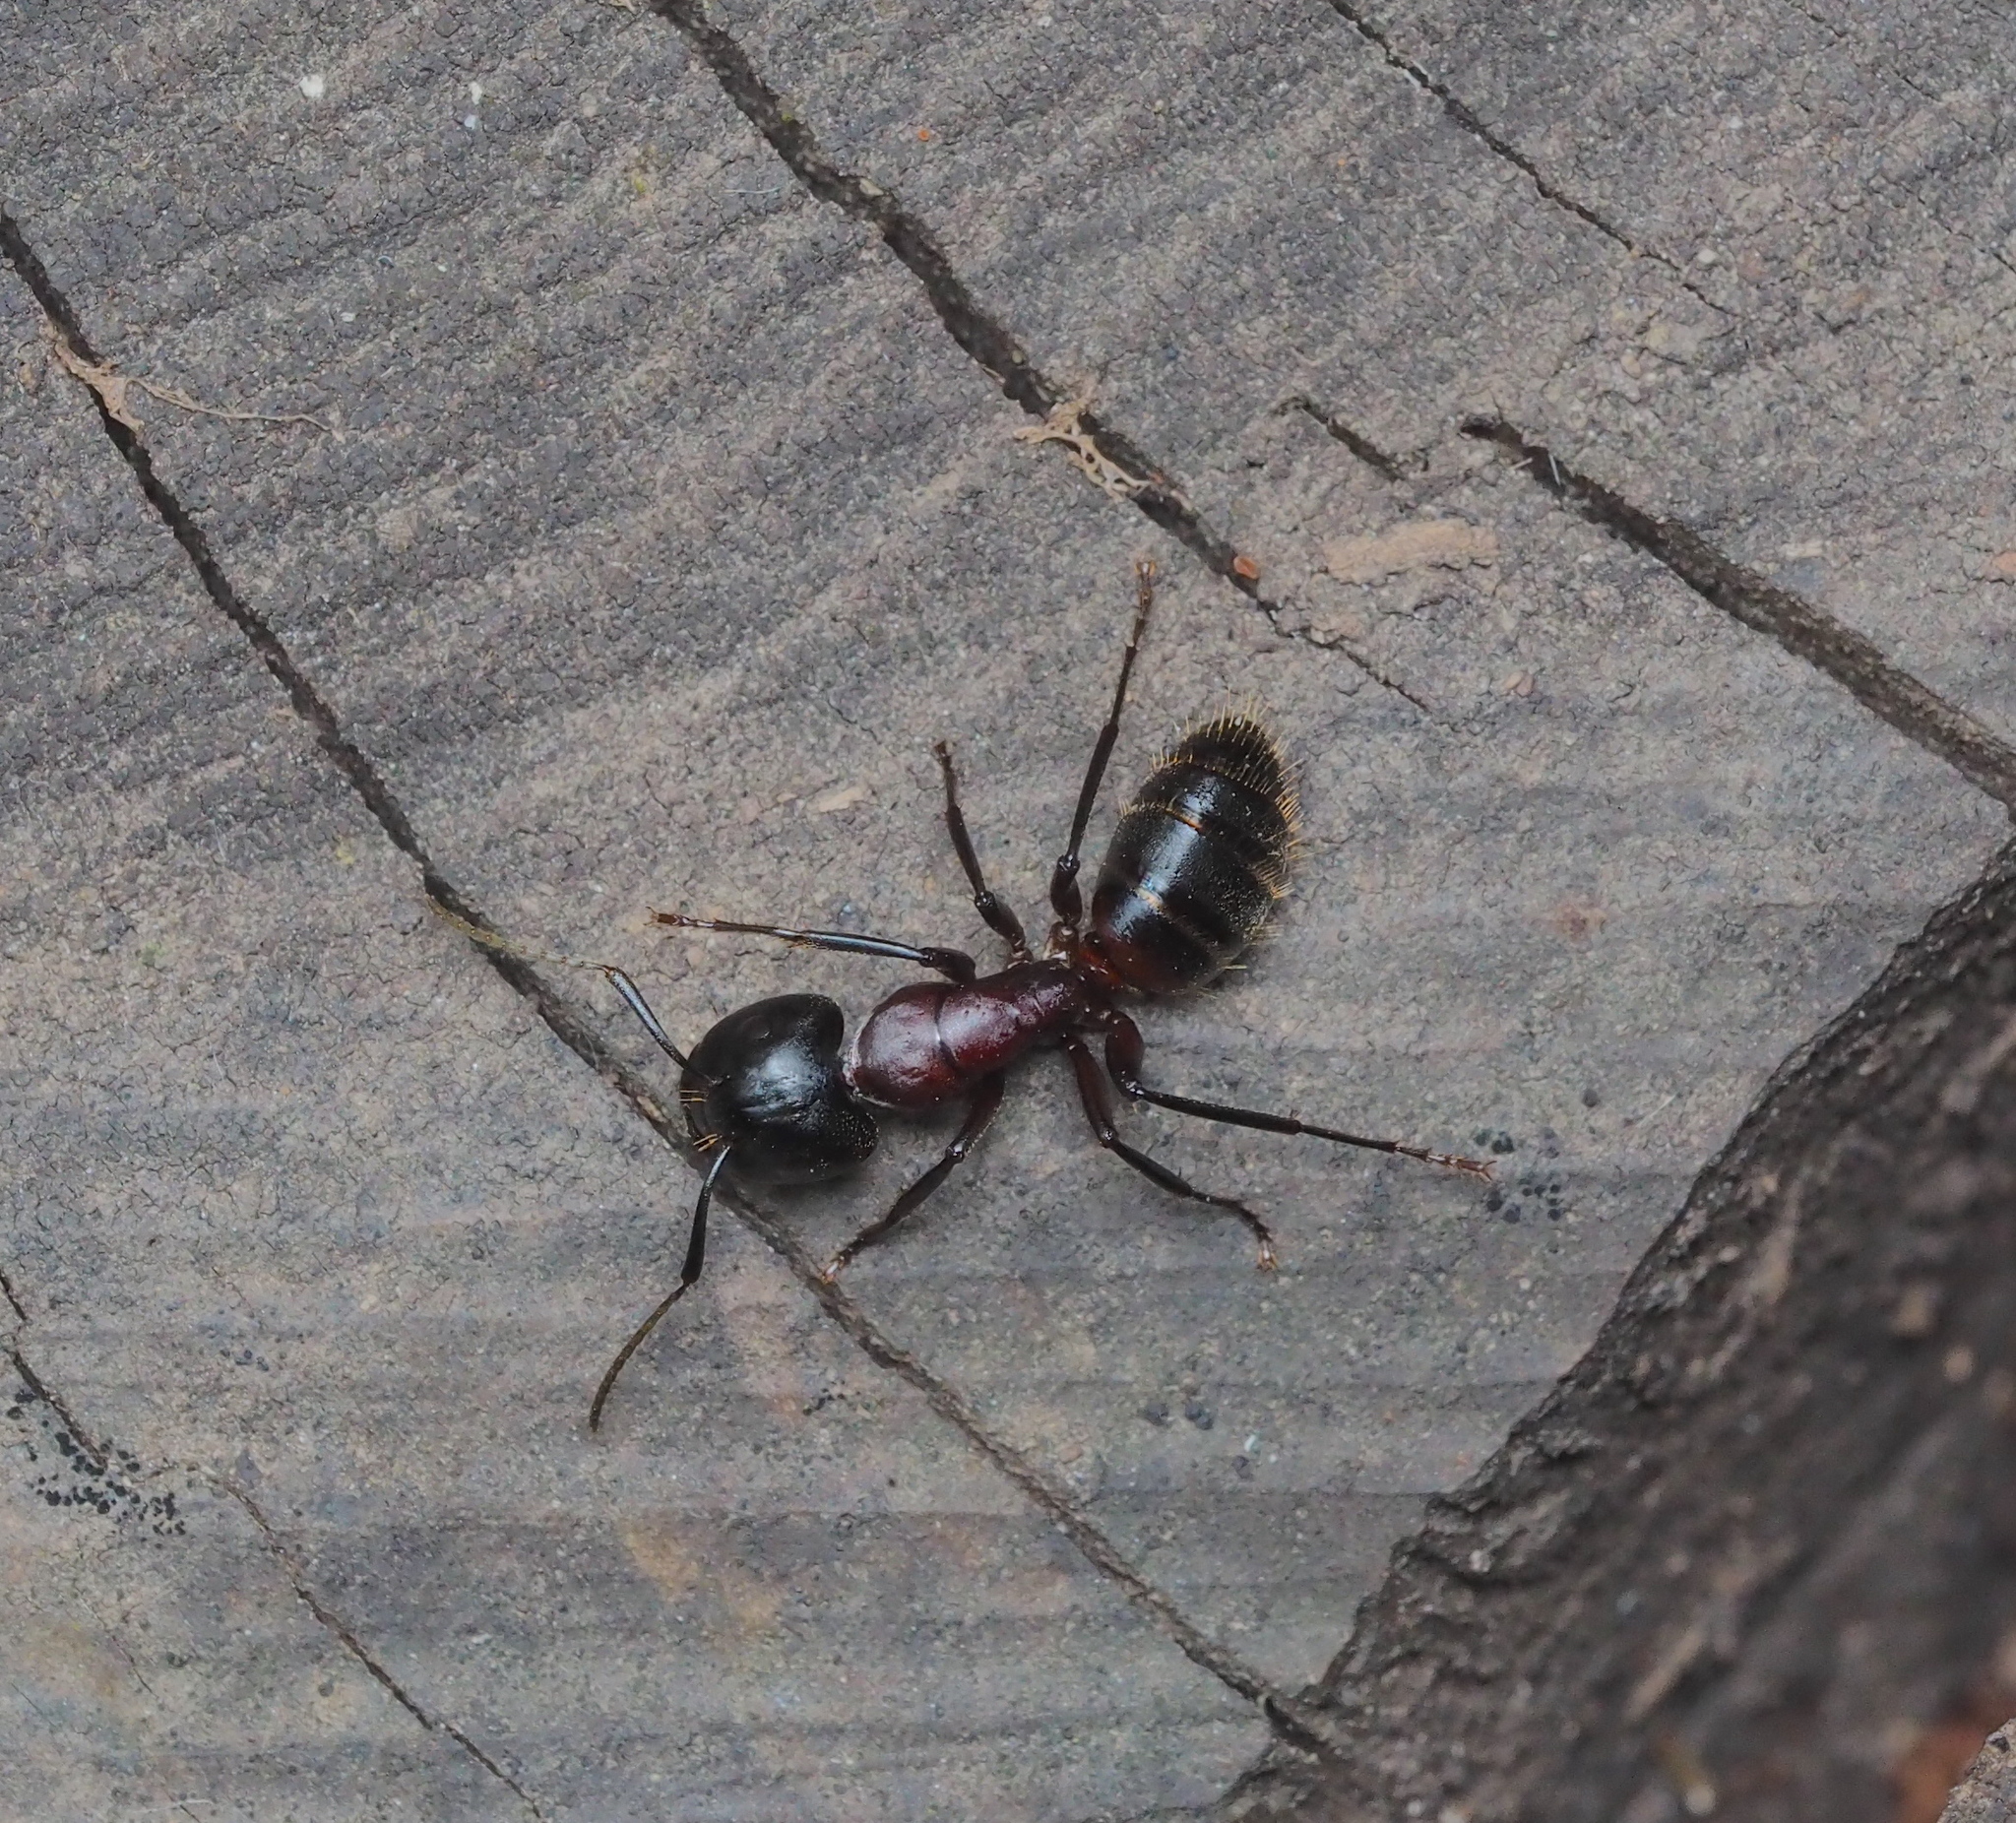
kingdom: Animalia
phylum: Arthropoda
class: Insecta
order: Hymenoptera
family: Formicidae
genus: Camponotus
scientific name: Camponotus ligniperdus
